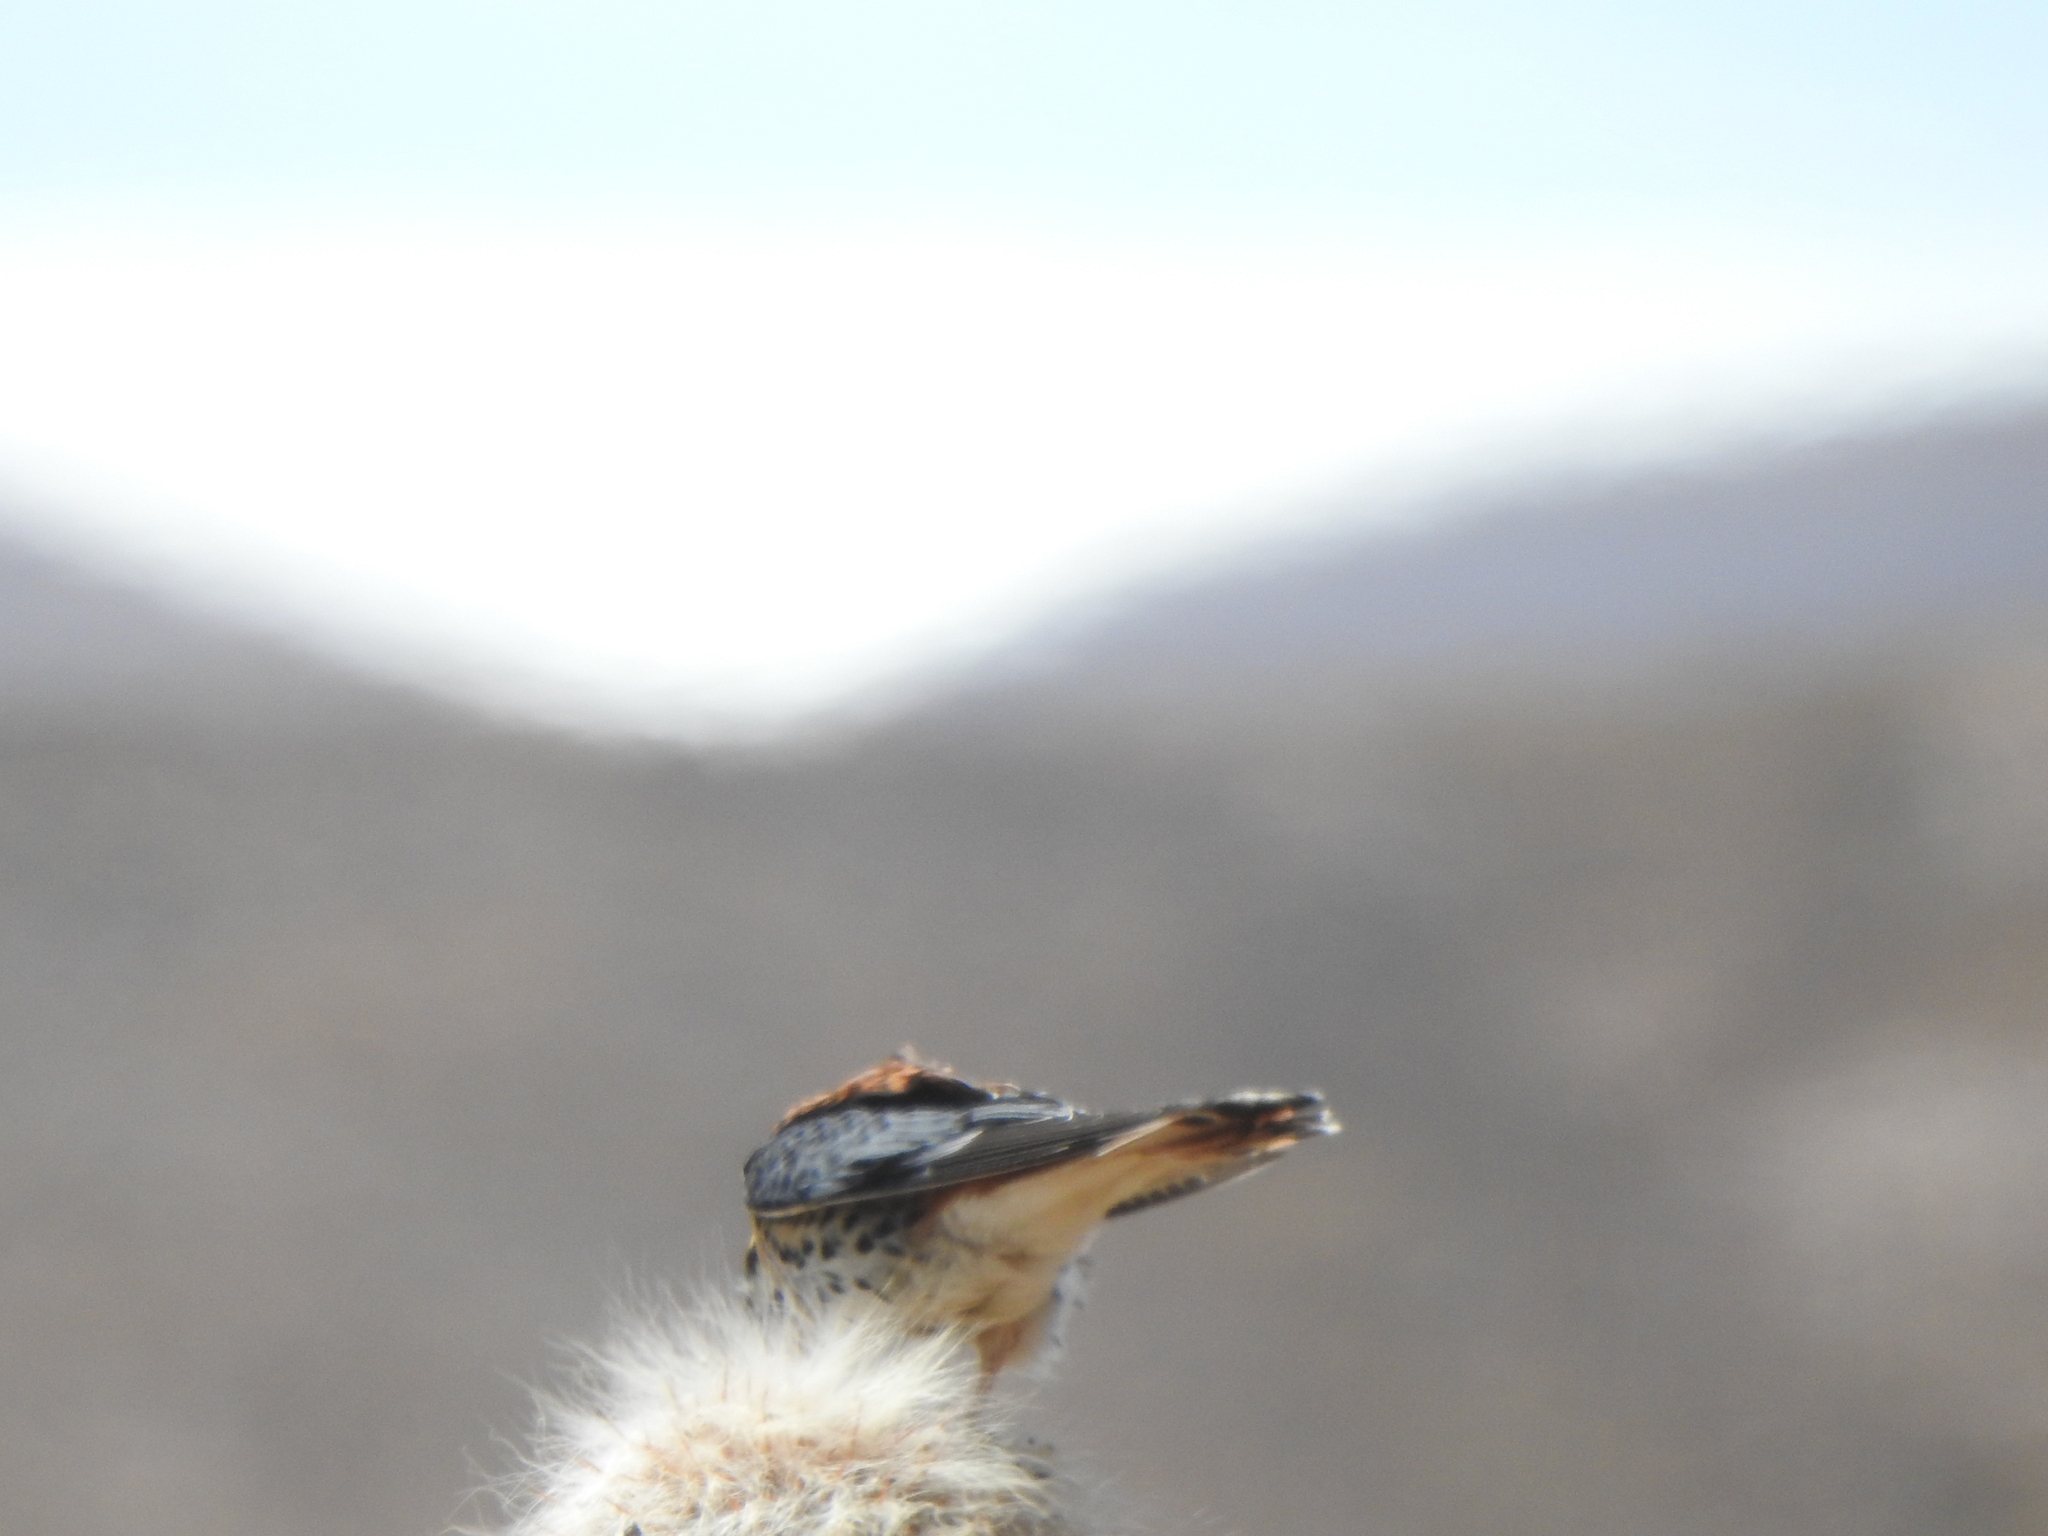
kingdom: Animalia
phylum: Chordata
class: Aves
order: Falconiformes
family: Falconidae
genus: Falco
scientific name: Falco sparverius
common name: American kestrel
